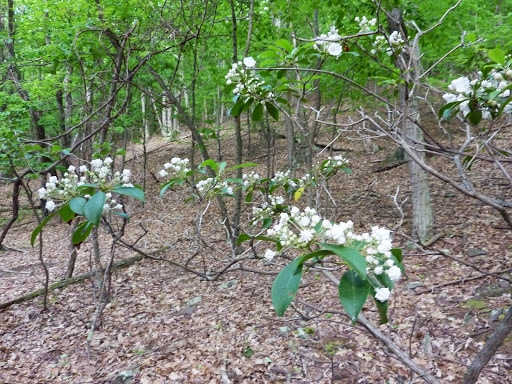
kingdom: Plantae
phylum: Tracheophyta
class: Magnoliopsida
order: Ericales
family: Ericaceae
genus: Kalmia
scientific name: Kalmia latifolia
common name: Mountain-laurel
